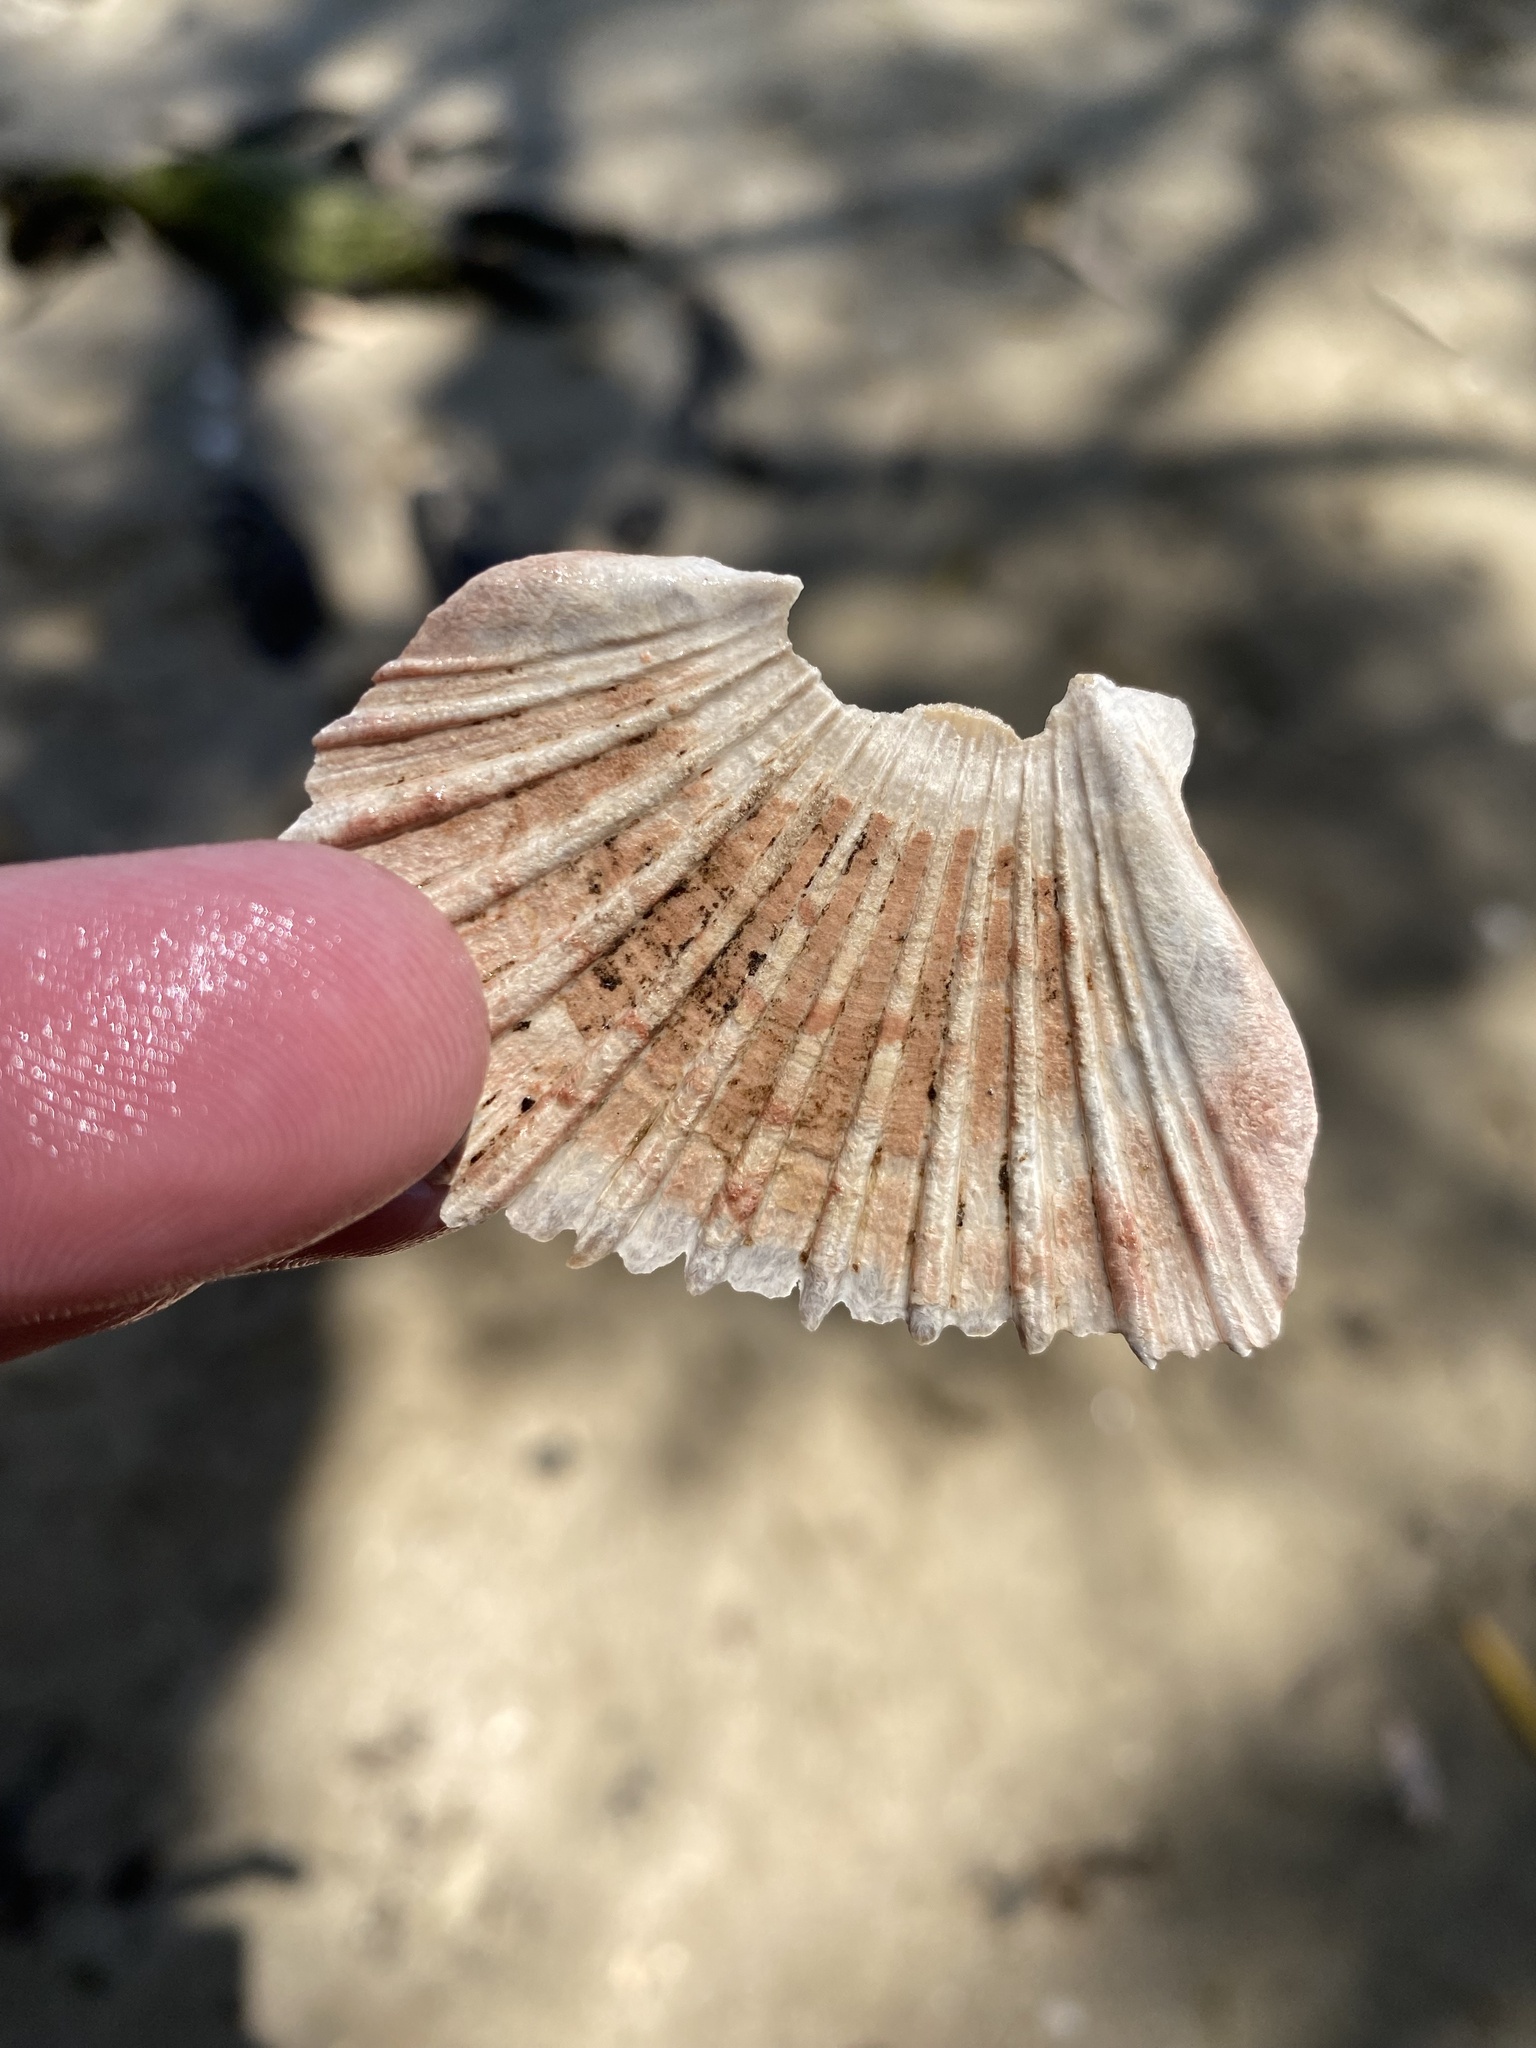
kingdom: Animalia
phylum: Mollusca
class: Bivalvia
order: Pectinida
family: Pectinidae
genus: Pecten
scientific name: Pecten fumatus
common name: Australian scallop
